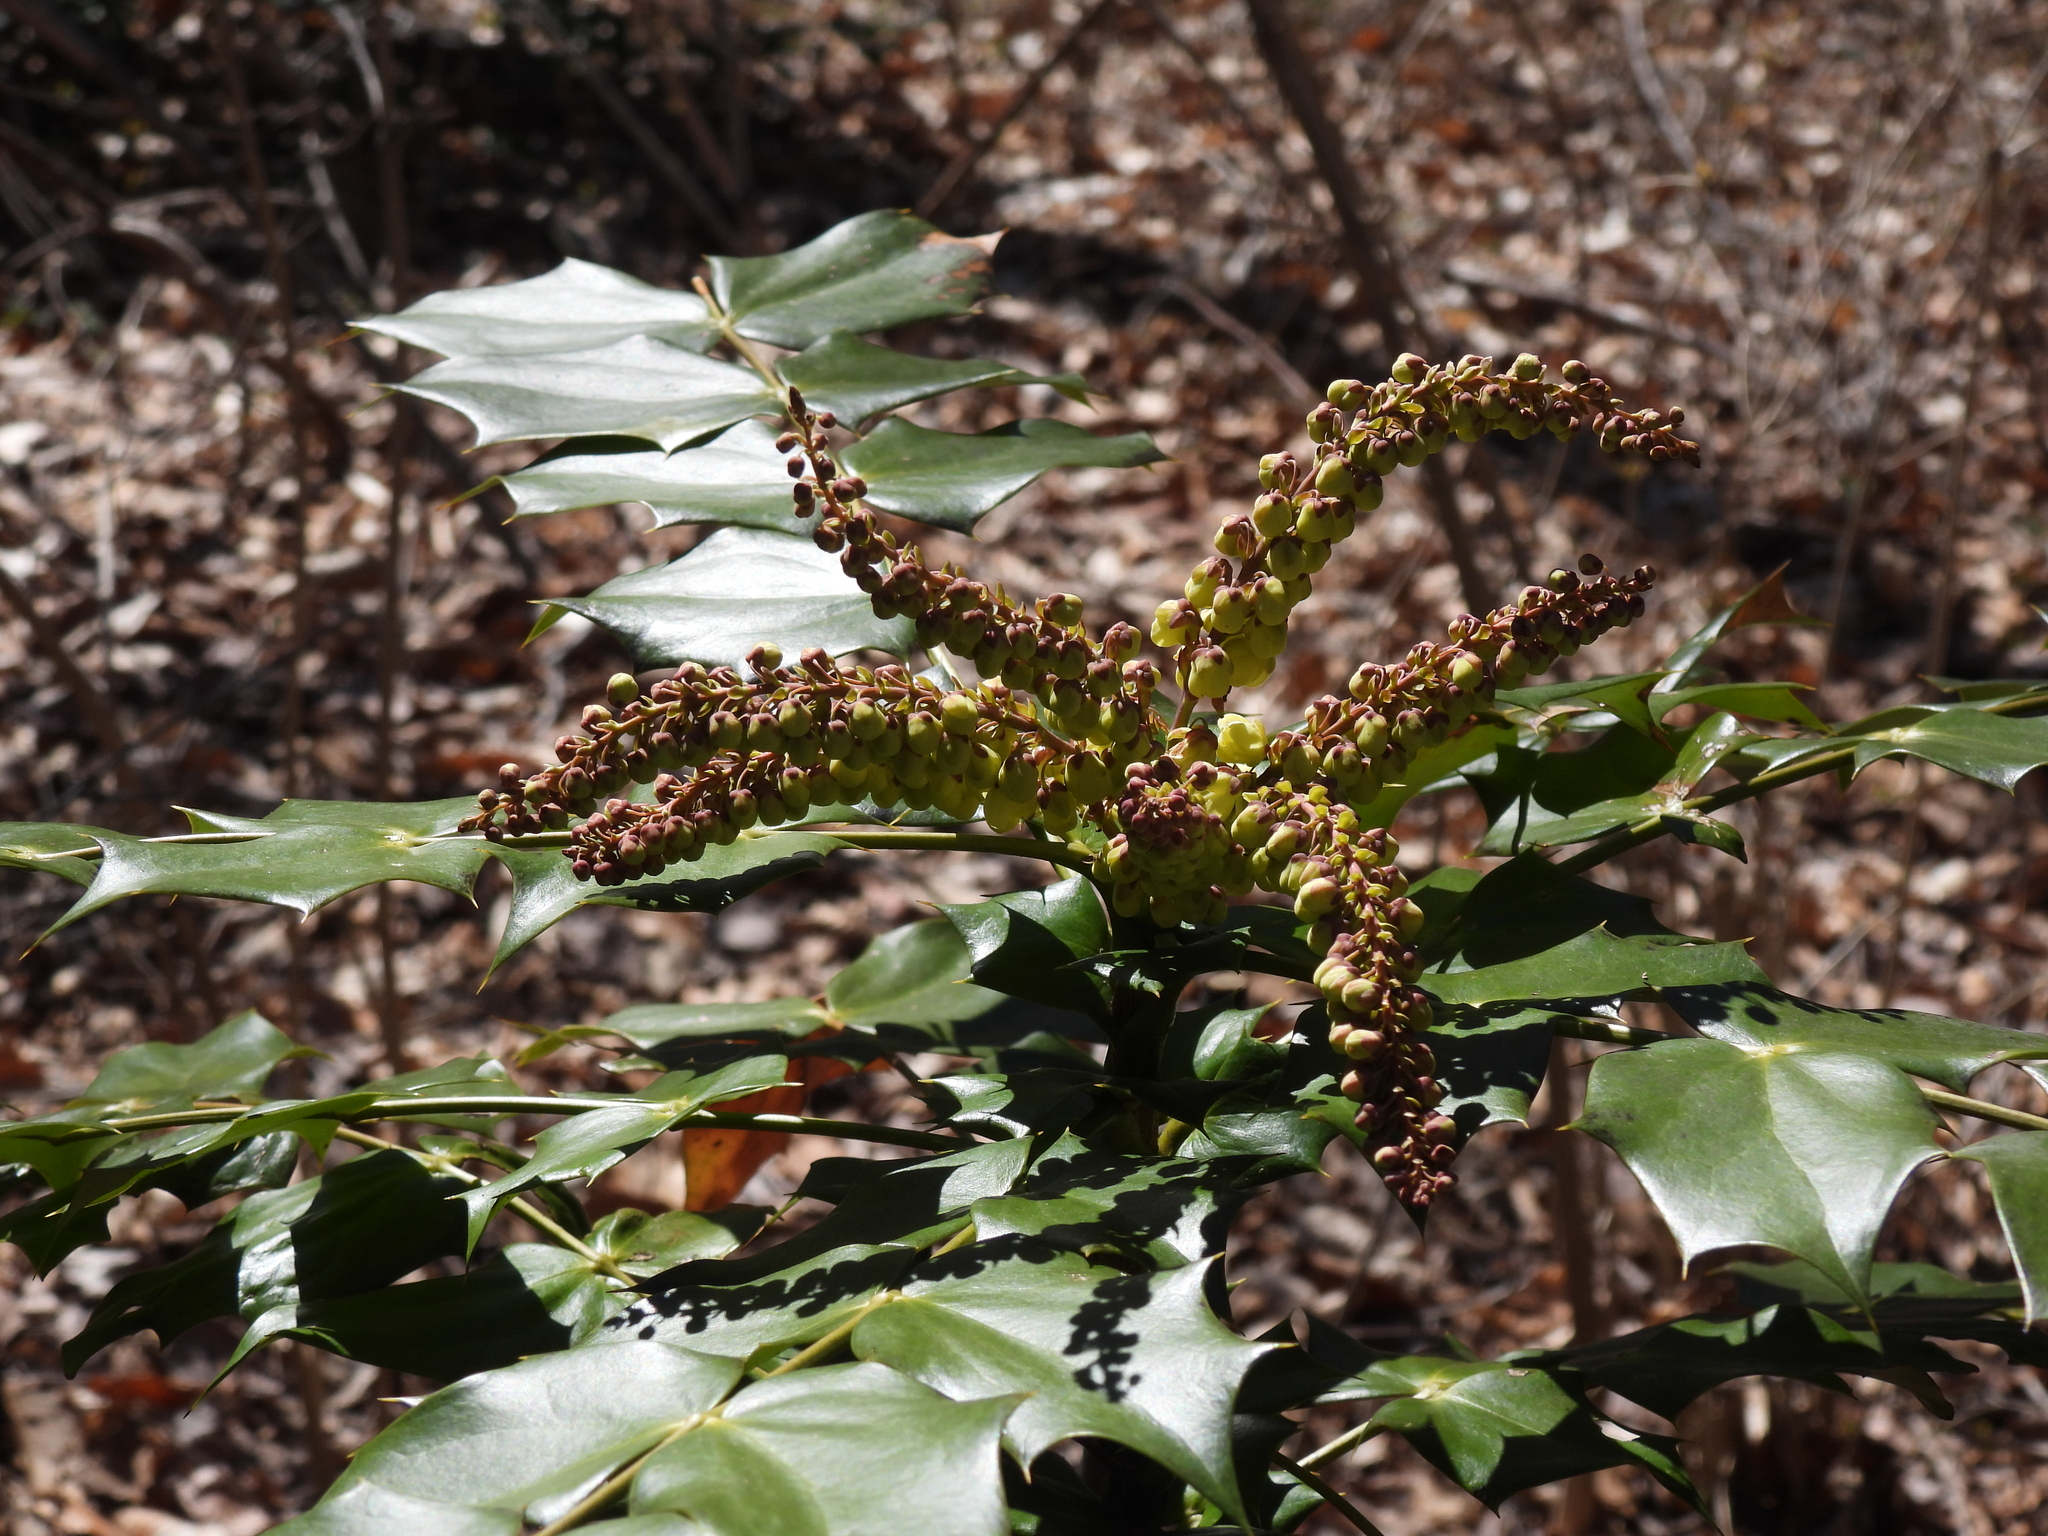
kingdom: Plantae
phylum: Tracheophyta
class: Magnoliopsida
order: Ranunculales
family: Berberidaceae
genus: Mahonia
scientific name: Mahonia bealei
